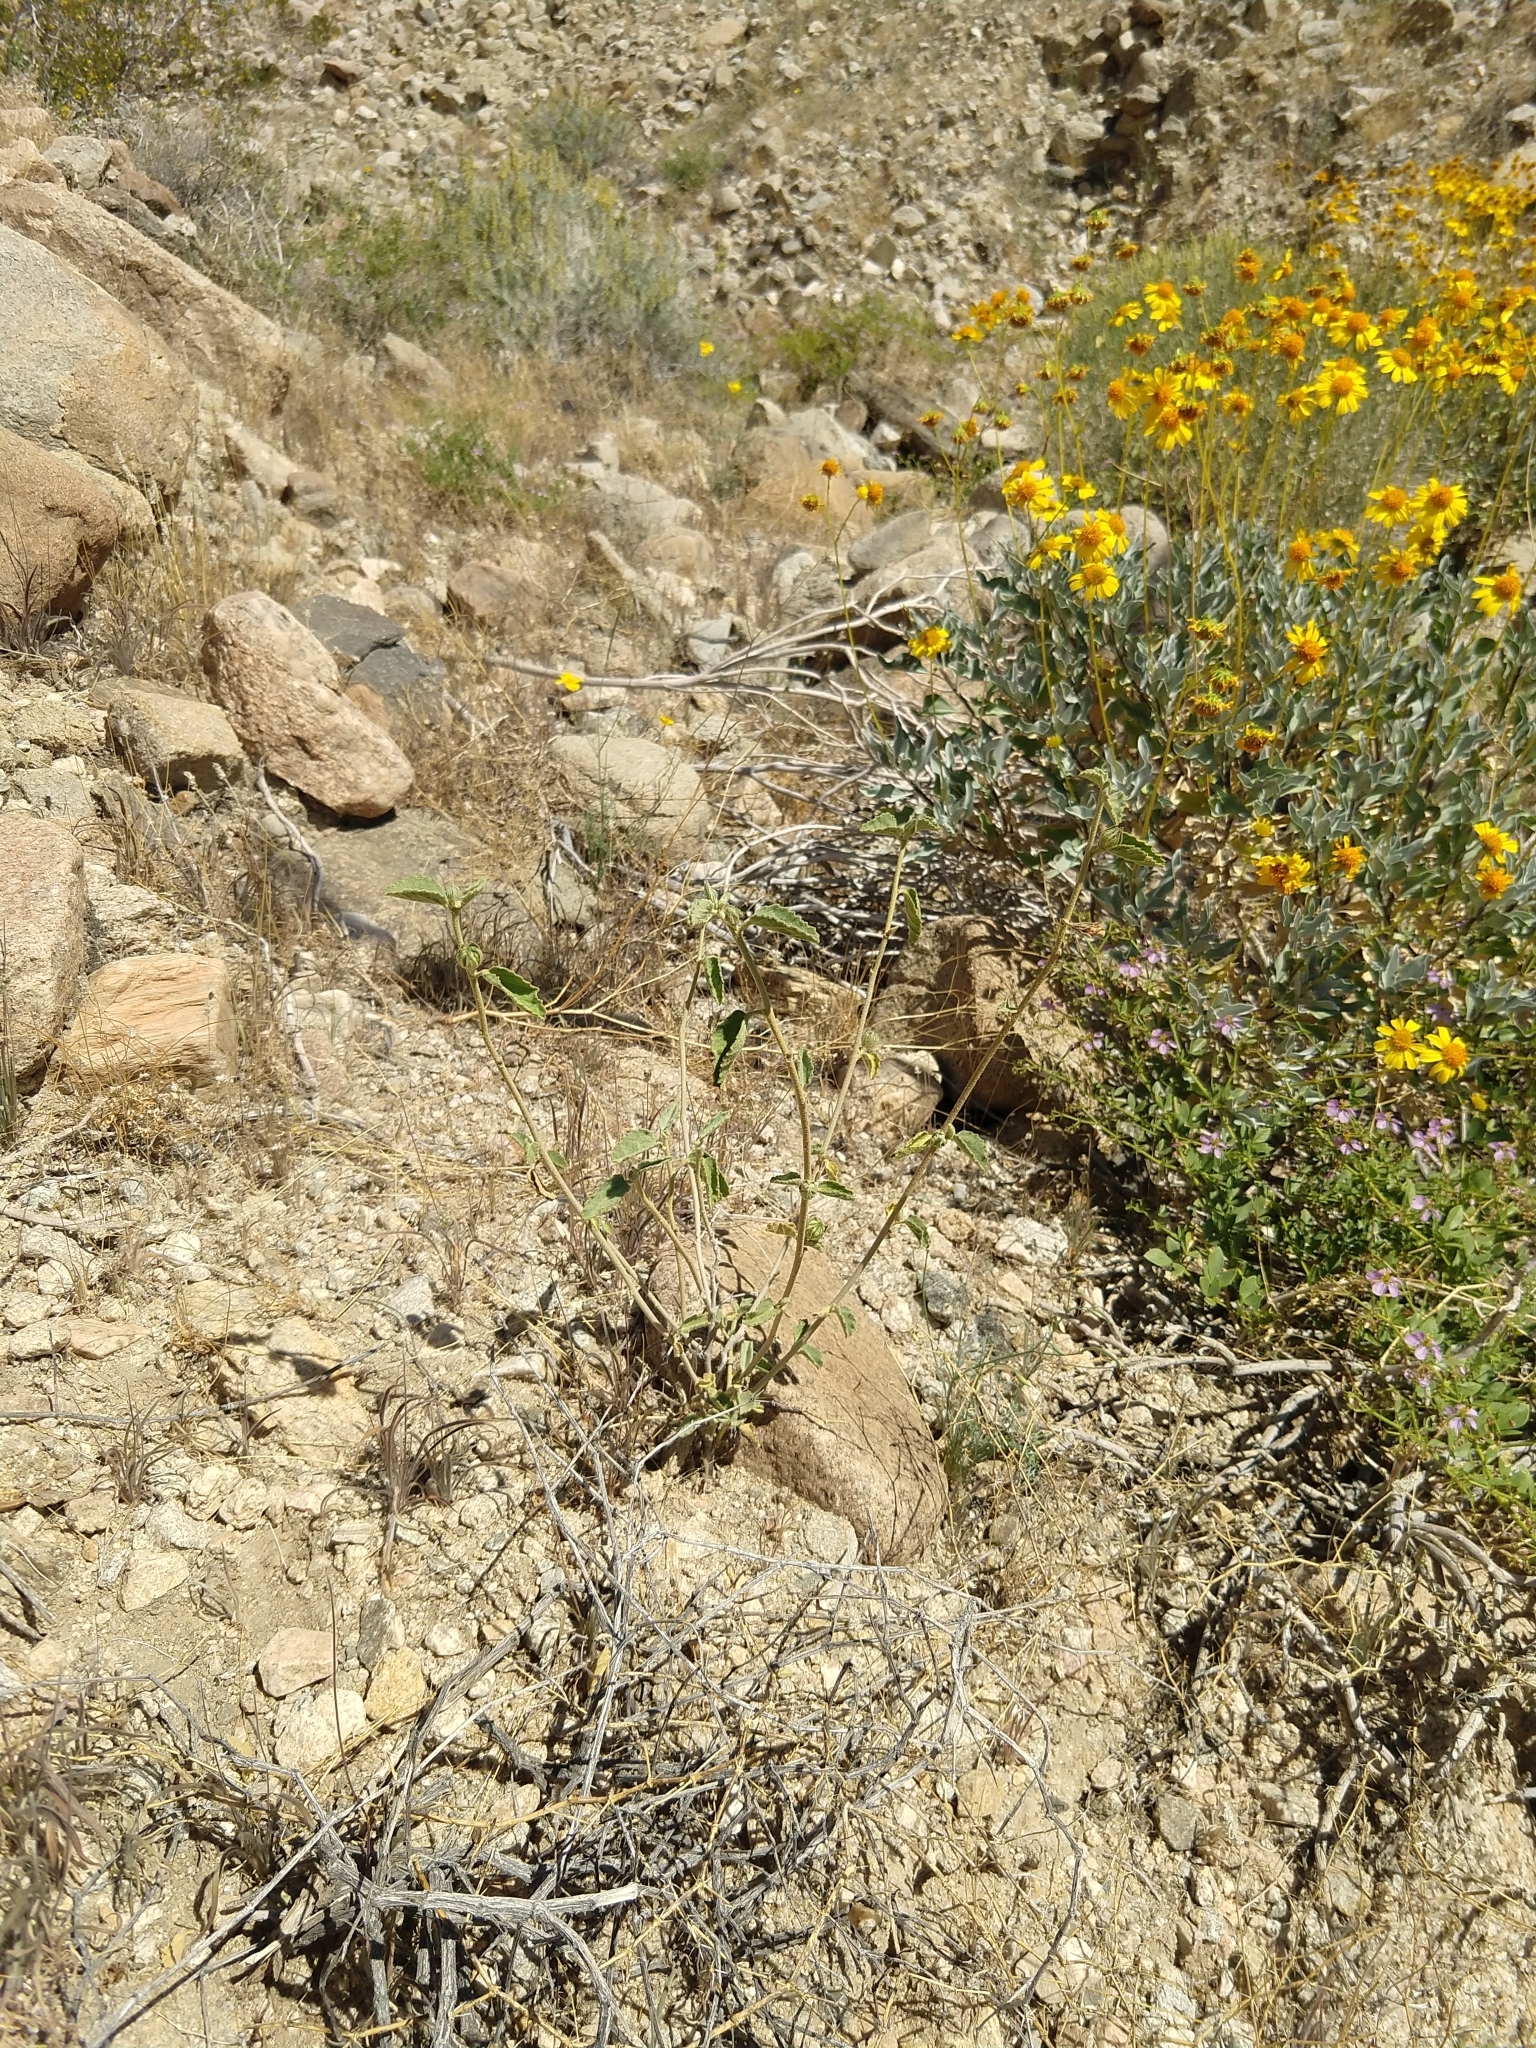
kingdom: Plantae
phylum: Tracheophyta
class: Magnoliopsida
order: Malvales
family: Malvaceae
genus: Hibiscus
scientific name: Hibiscus denudatus
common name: Paleface
